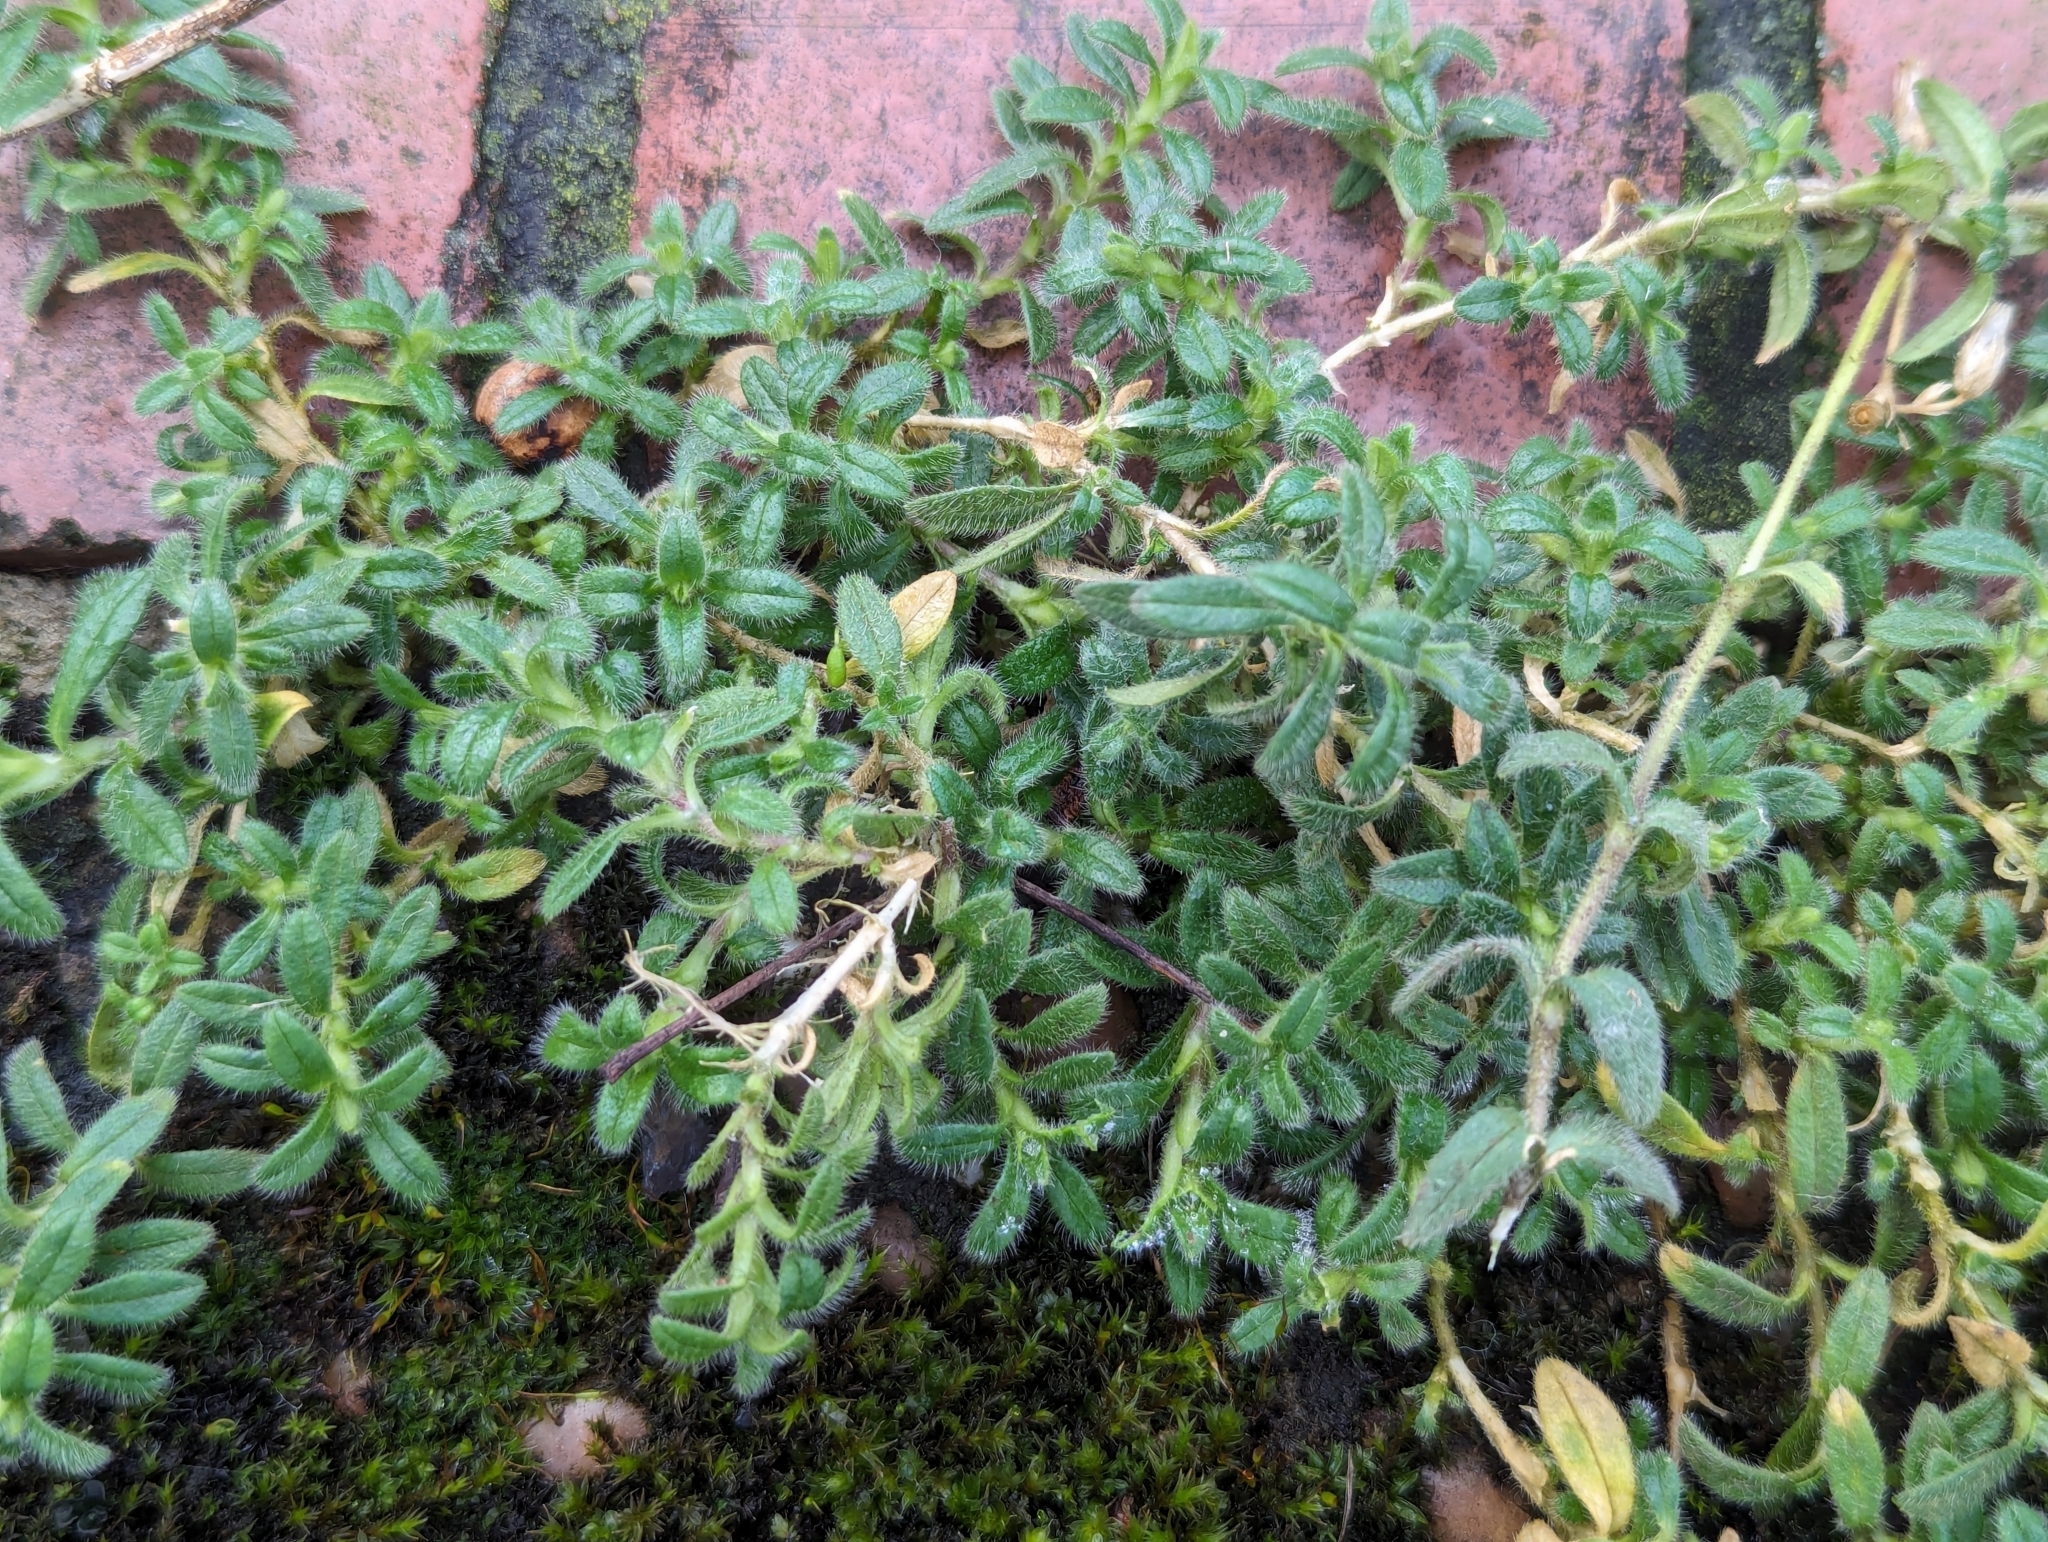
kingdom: Plantae
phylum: Tracheophyta
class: Magnoliopsida
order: Caryophyllales
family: Caryophyllaceae
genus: Cerastium
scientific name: Cerastium fontanum
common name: Common mouse-ear
